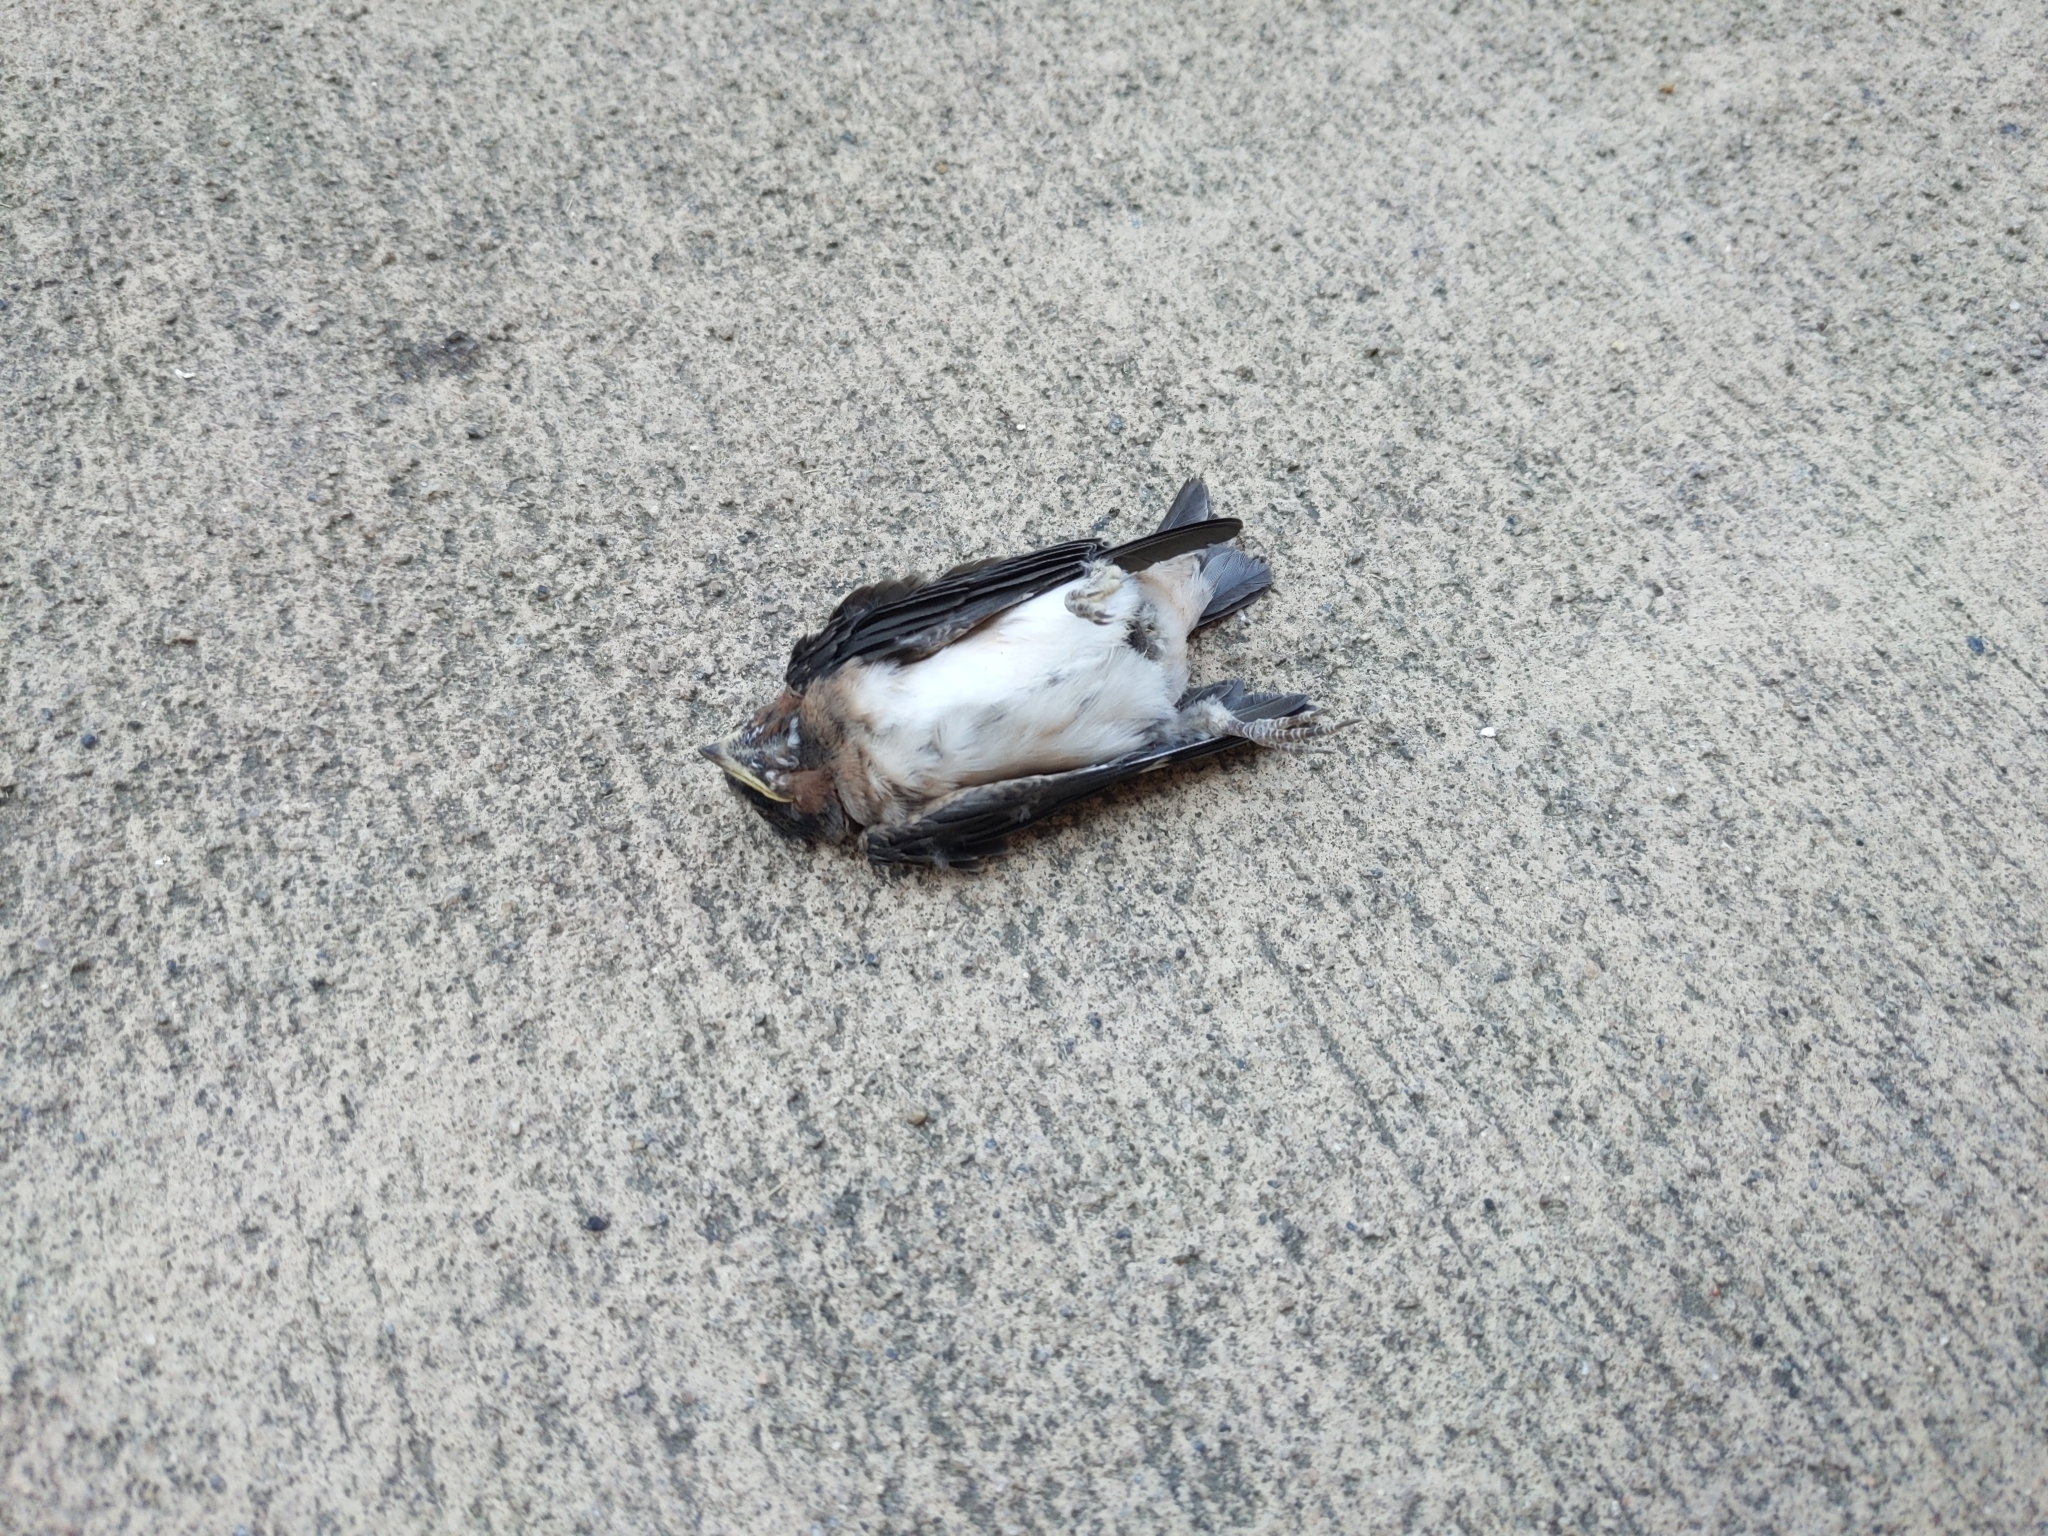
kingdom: Animalia
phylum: Chordata
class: Aves
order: Passeriformes
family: Hirundinidae
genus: Petrochelidon
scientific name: Petrochelidon pyrrhonota
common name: American cliff swallow
